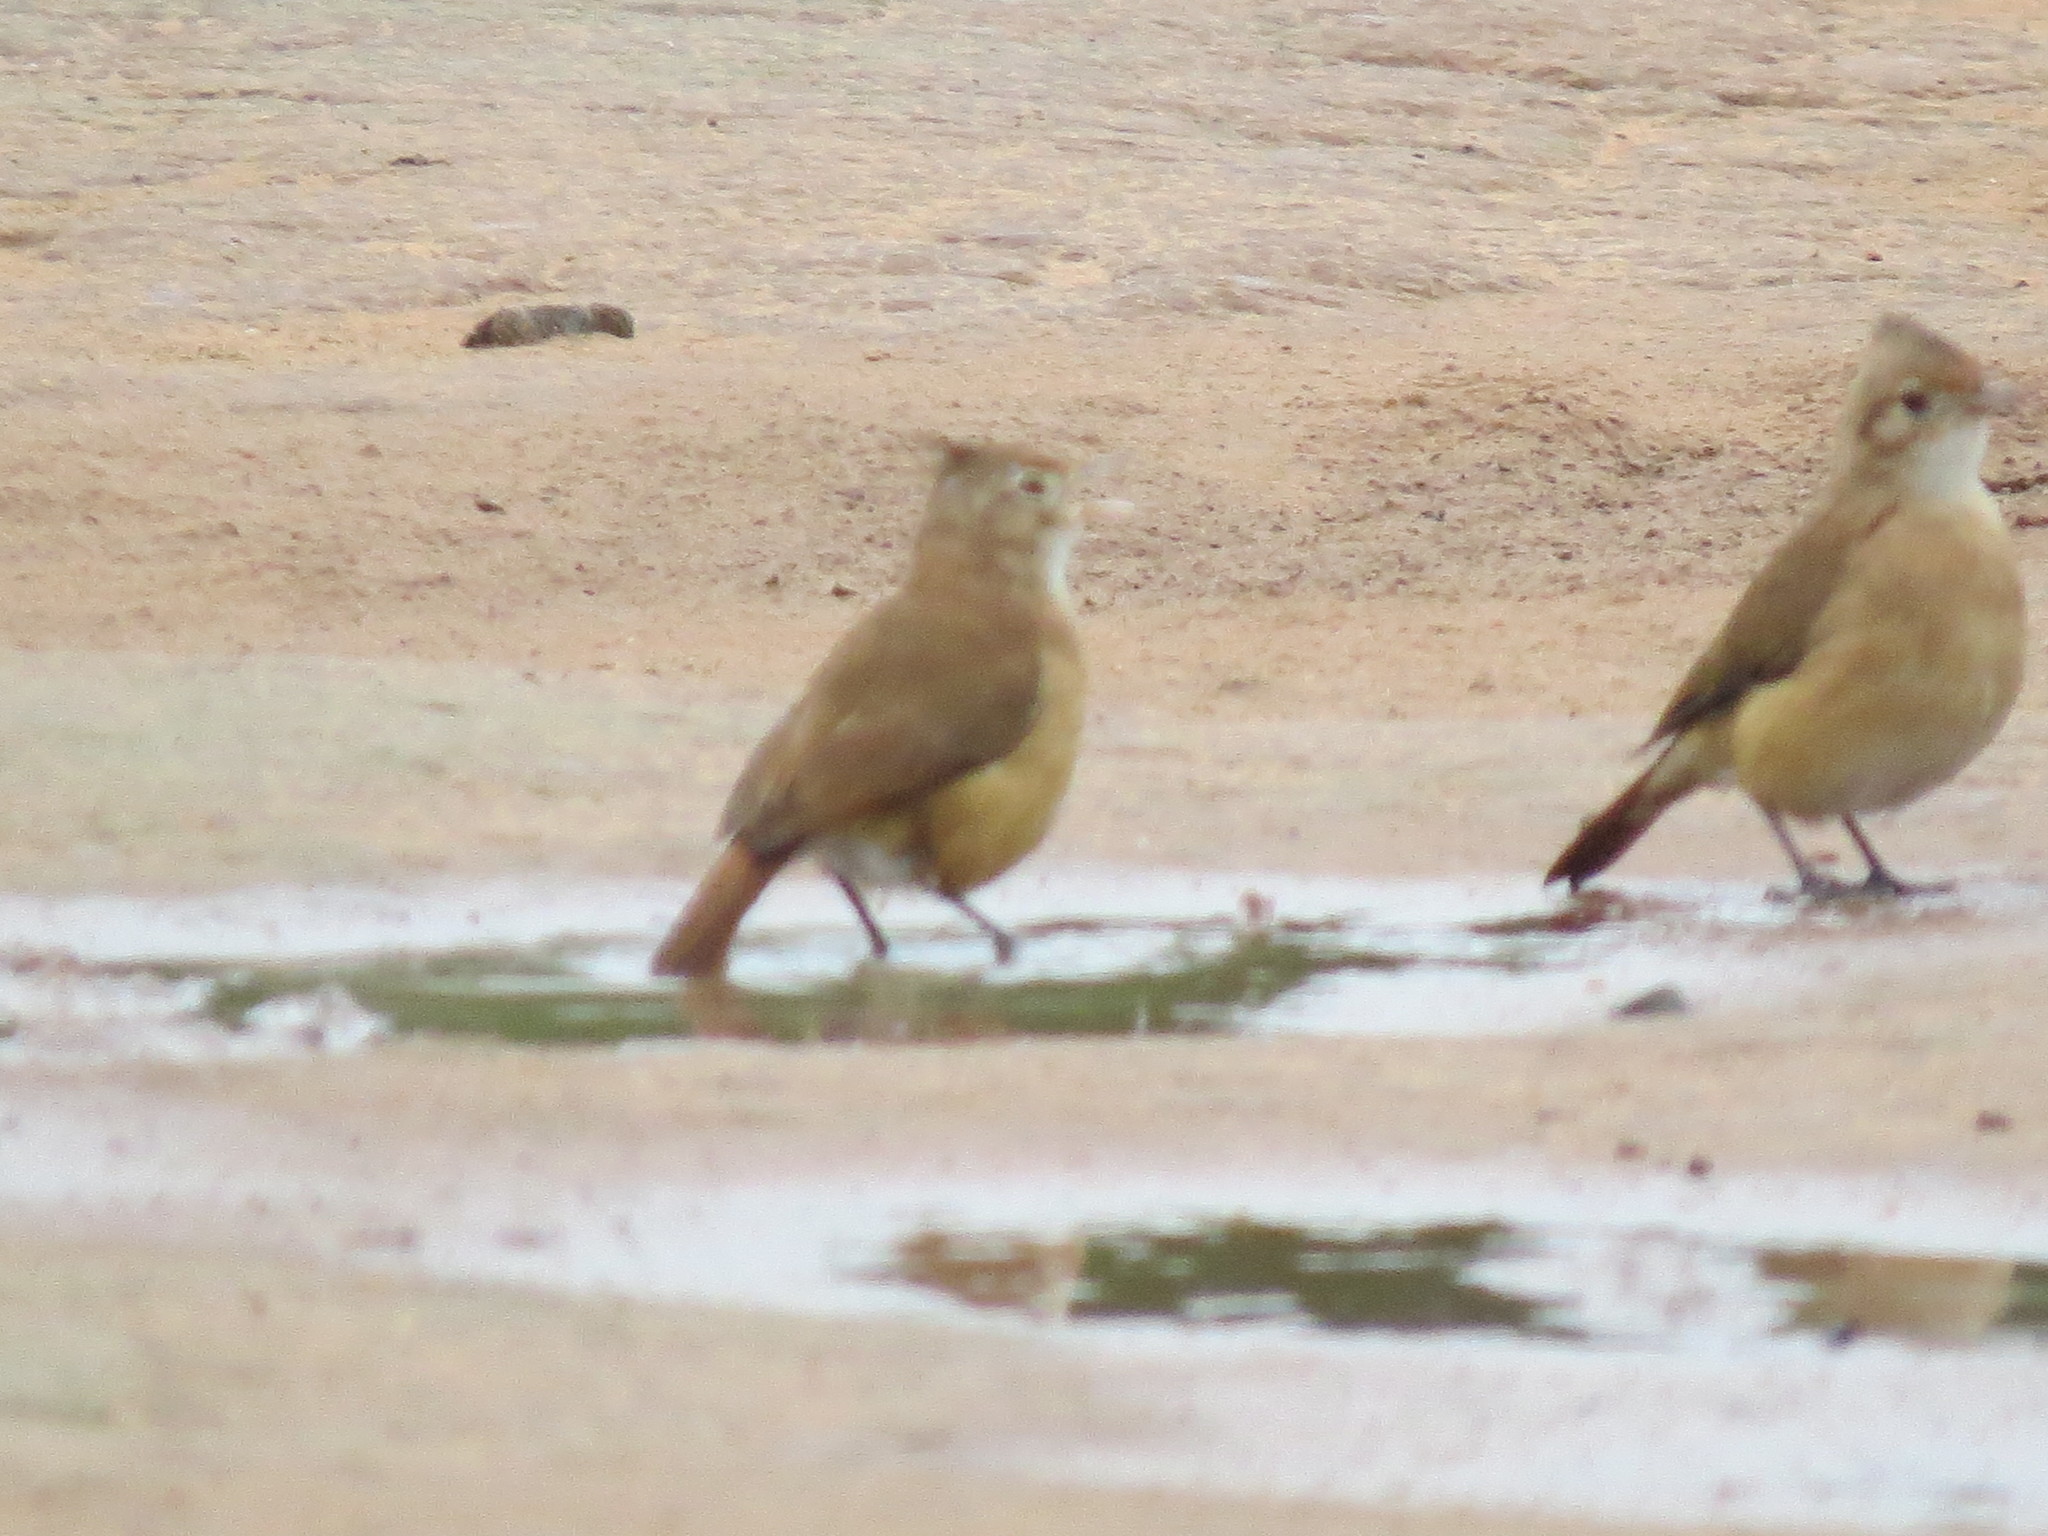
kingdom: Animalia
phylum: Chordata
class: Aves
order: Passeriformes
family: Furnariidae
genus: Furnarius
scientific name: Furnarius cristatus
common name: Crested hornero
